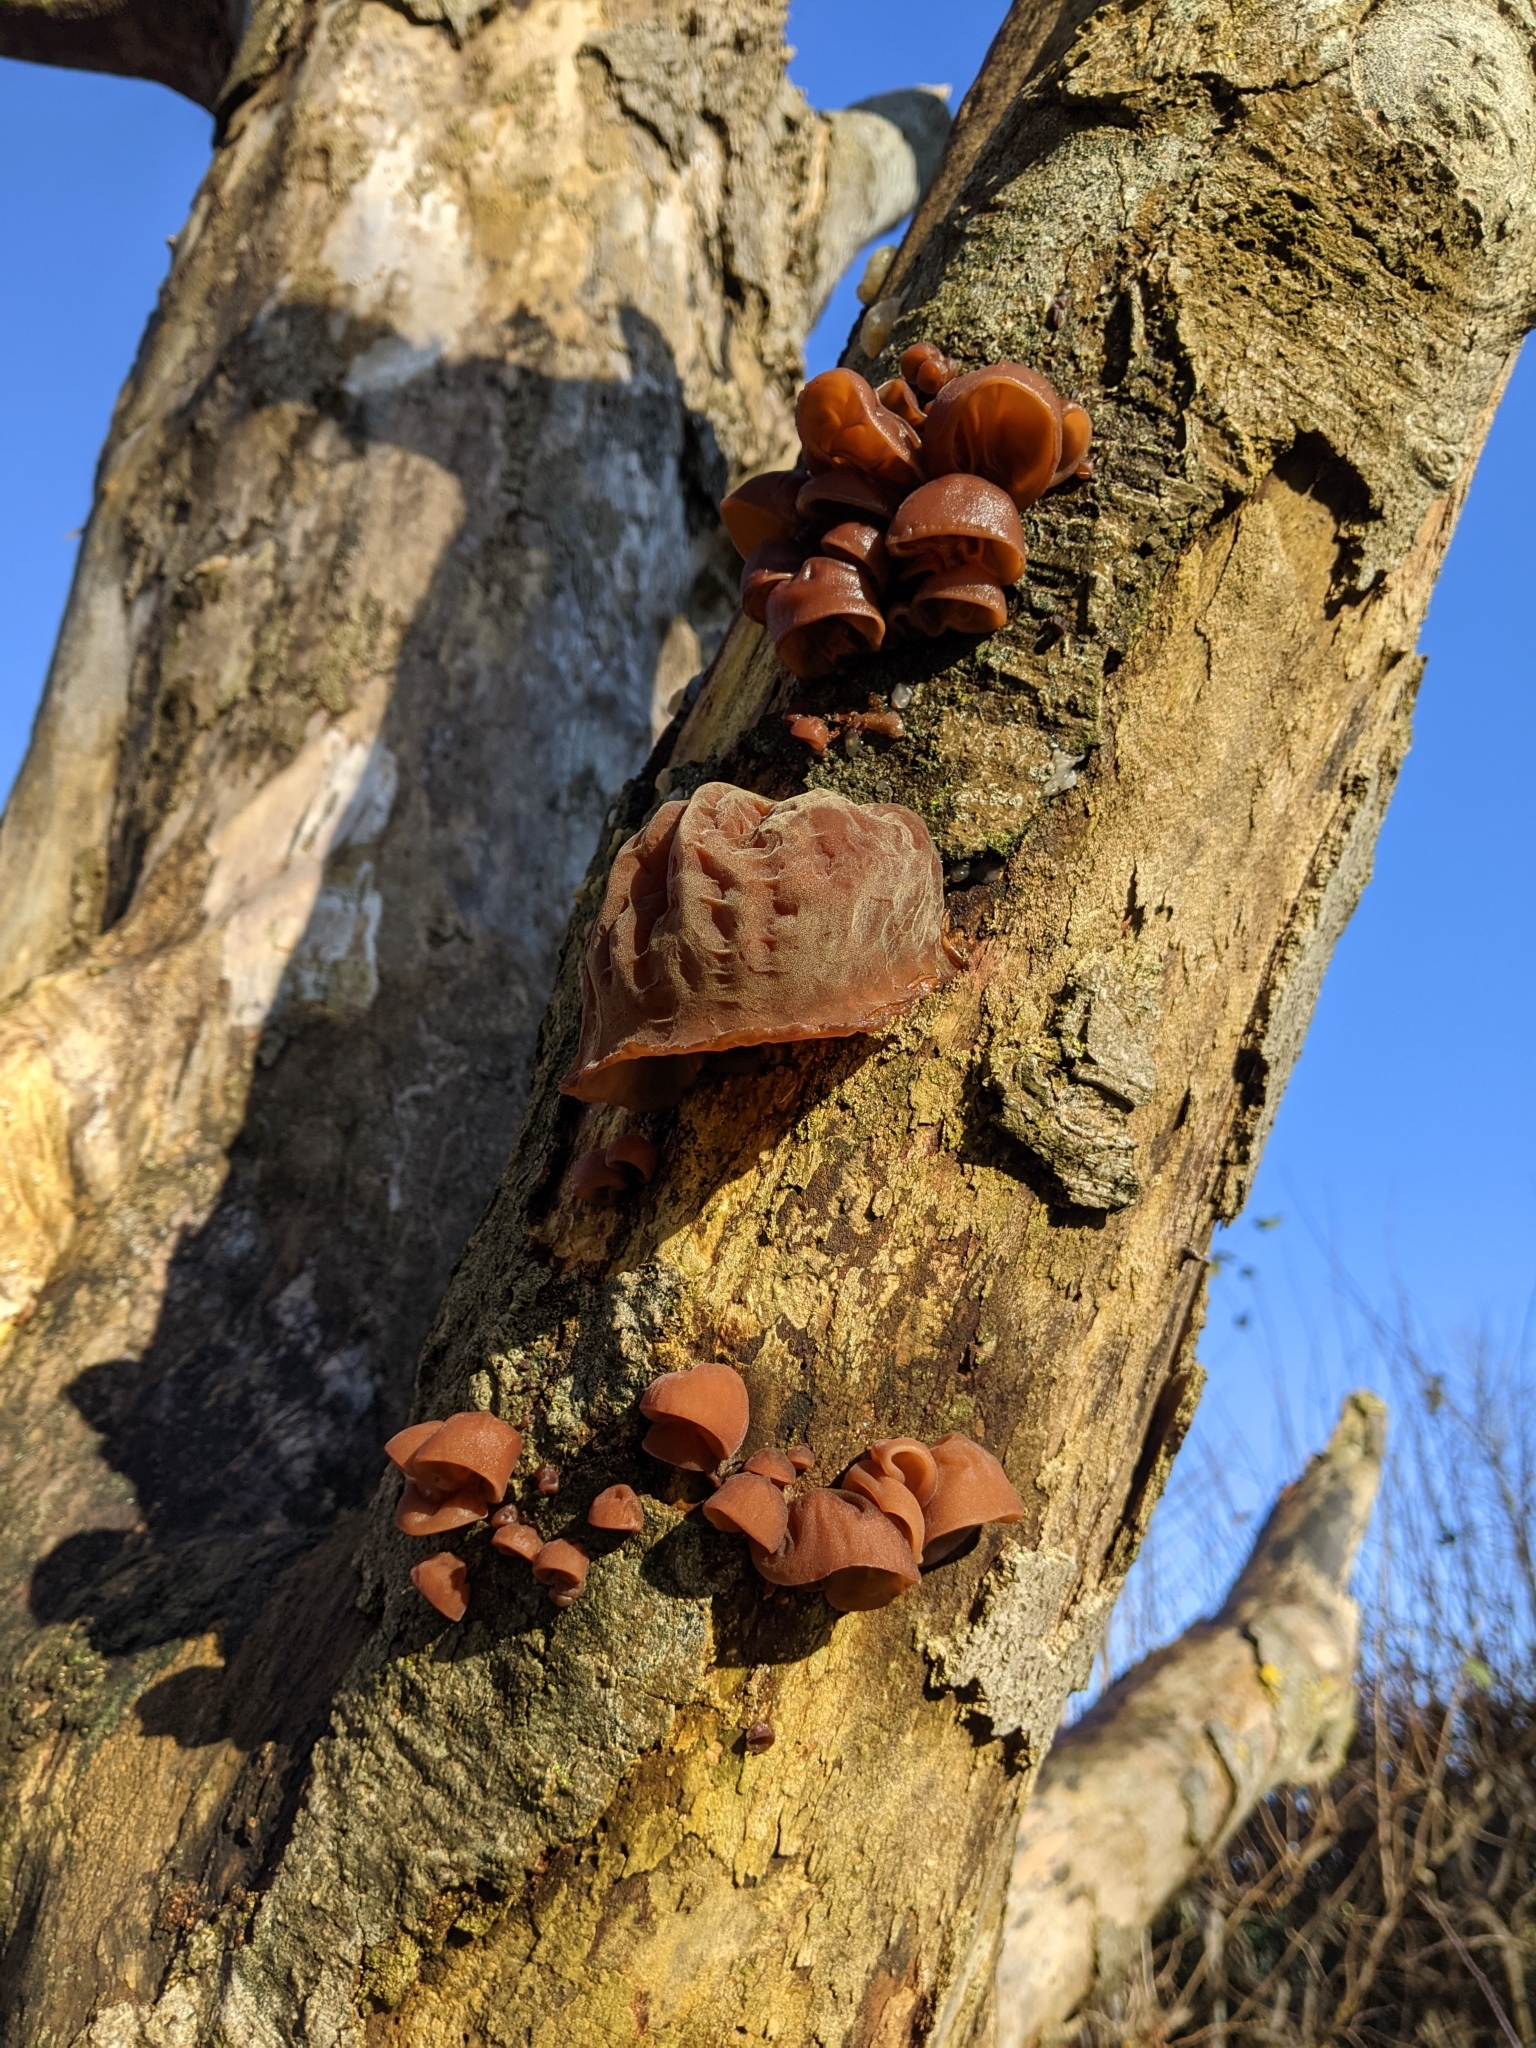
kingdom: Fungi
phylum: Basidiomycota
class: Agaricomycetes
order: Auriculariales
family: Auriculariaceae
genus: Auricularia
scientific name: Auricularia auricula-judae
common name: Jelly ear
